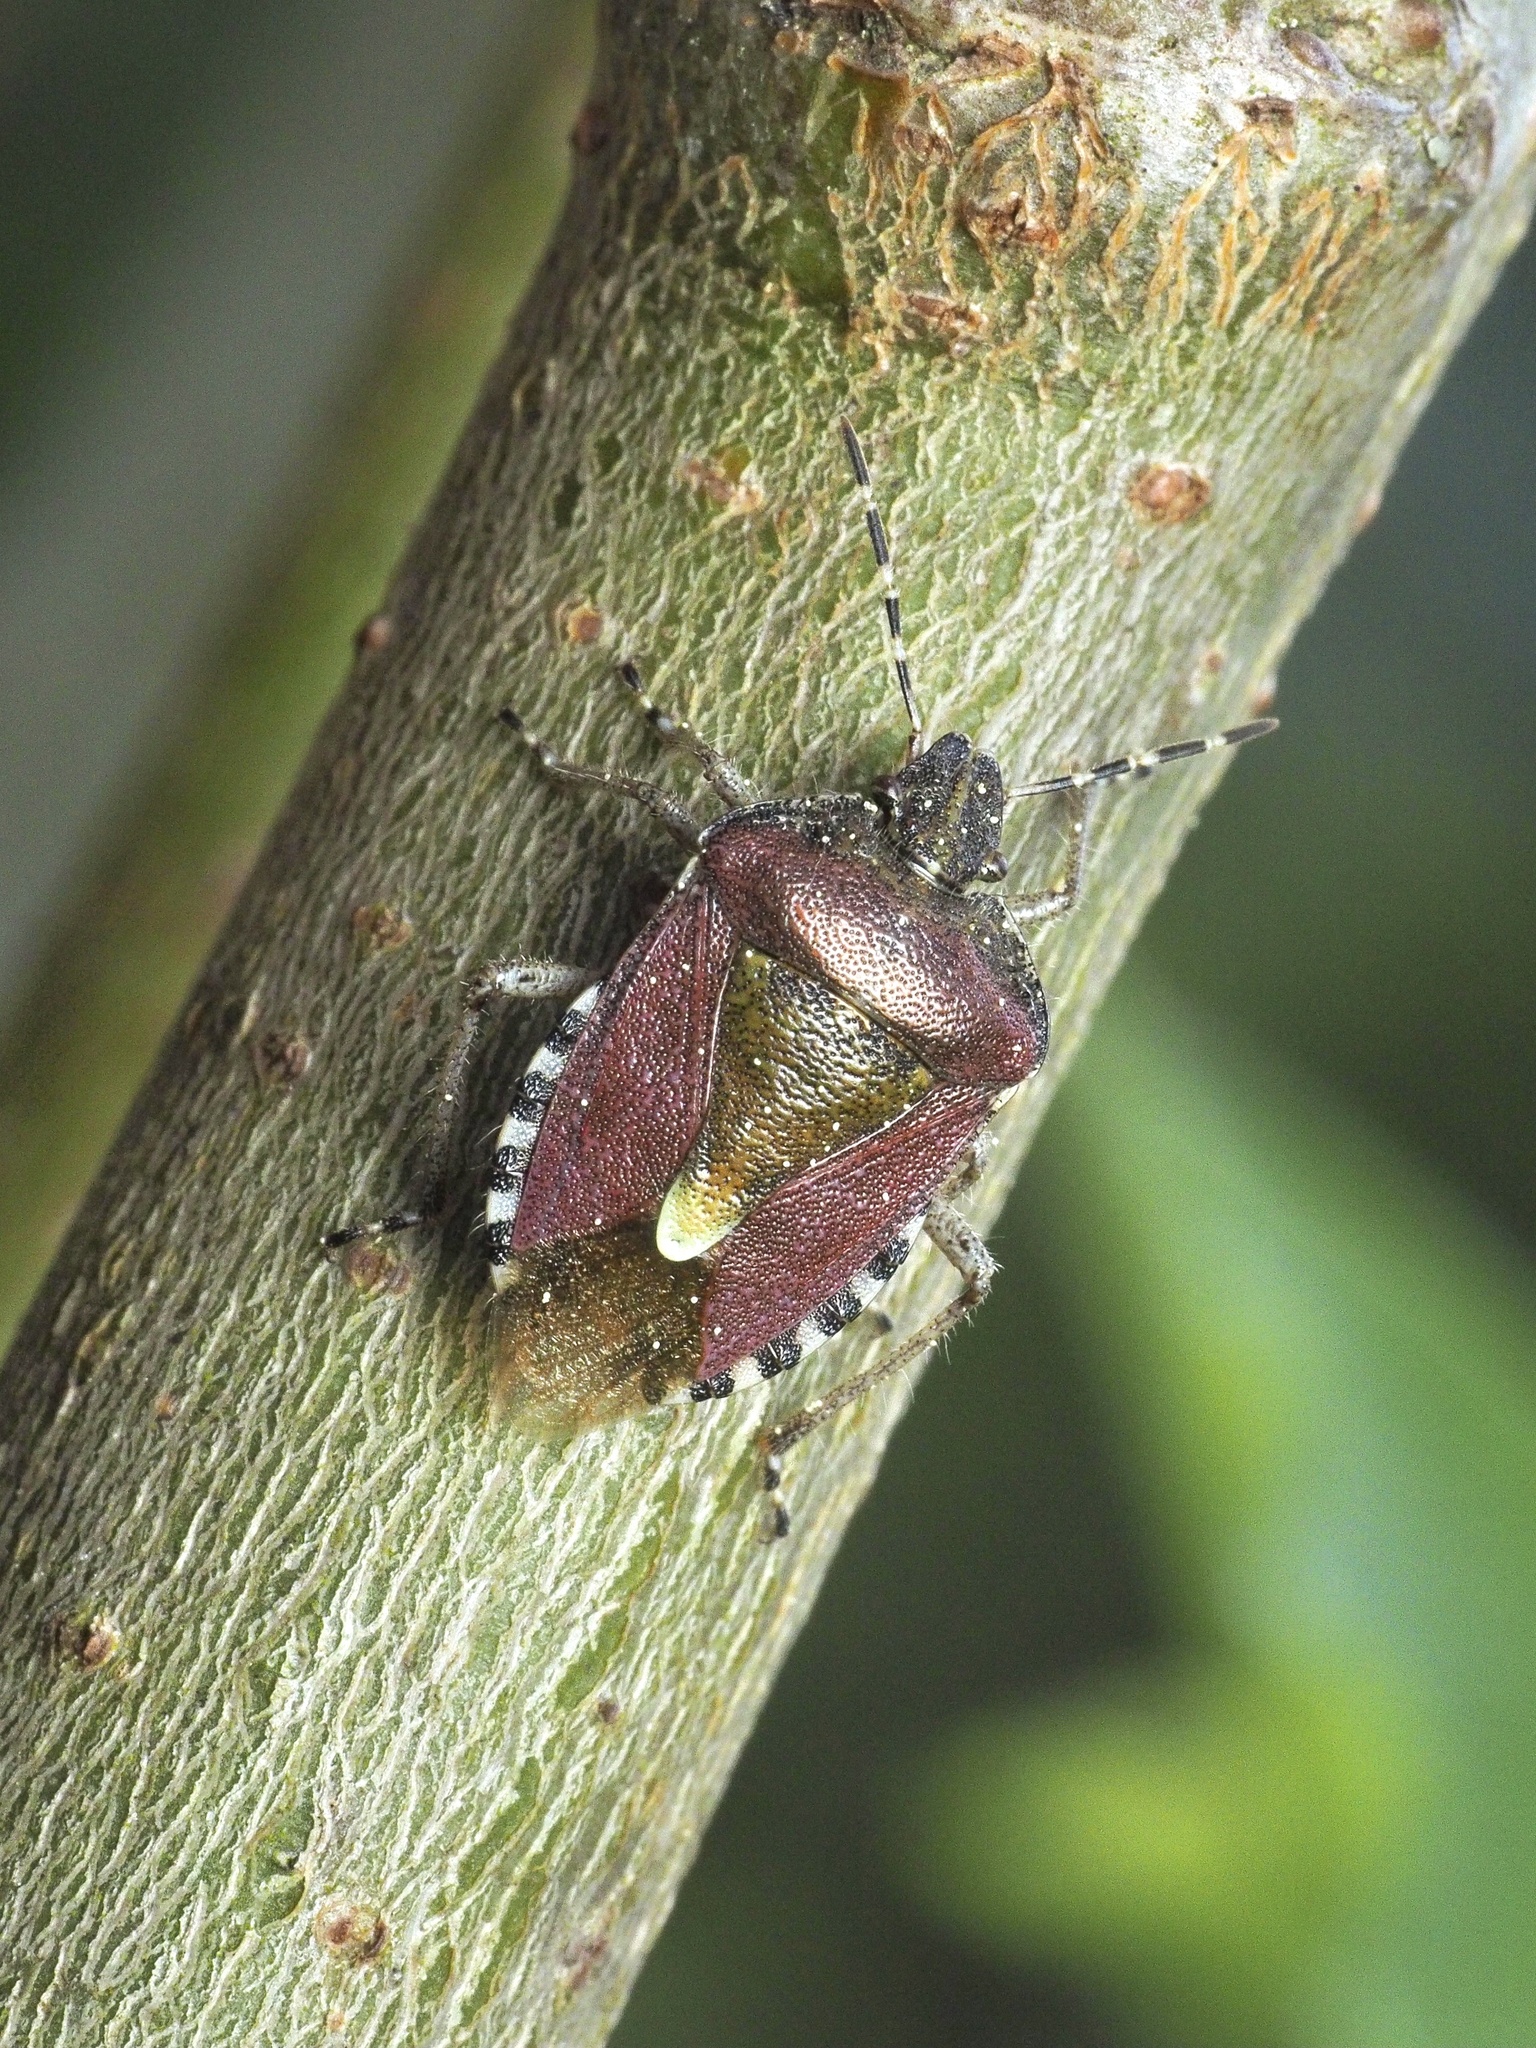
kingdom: Animalia
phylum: Arthropoda
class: Insecta
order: Hemiptera
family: Pentatomidae
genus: Dolycoris
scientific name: Dolycoris baccarum
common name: Sloe bug
